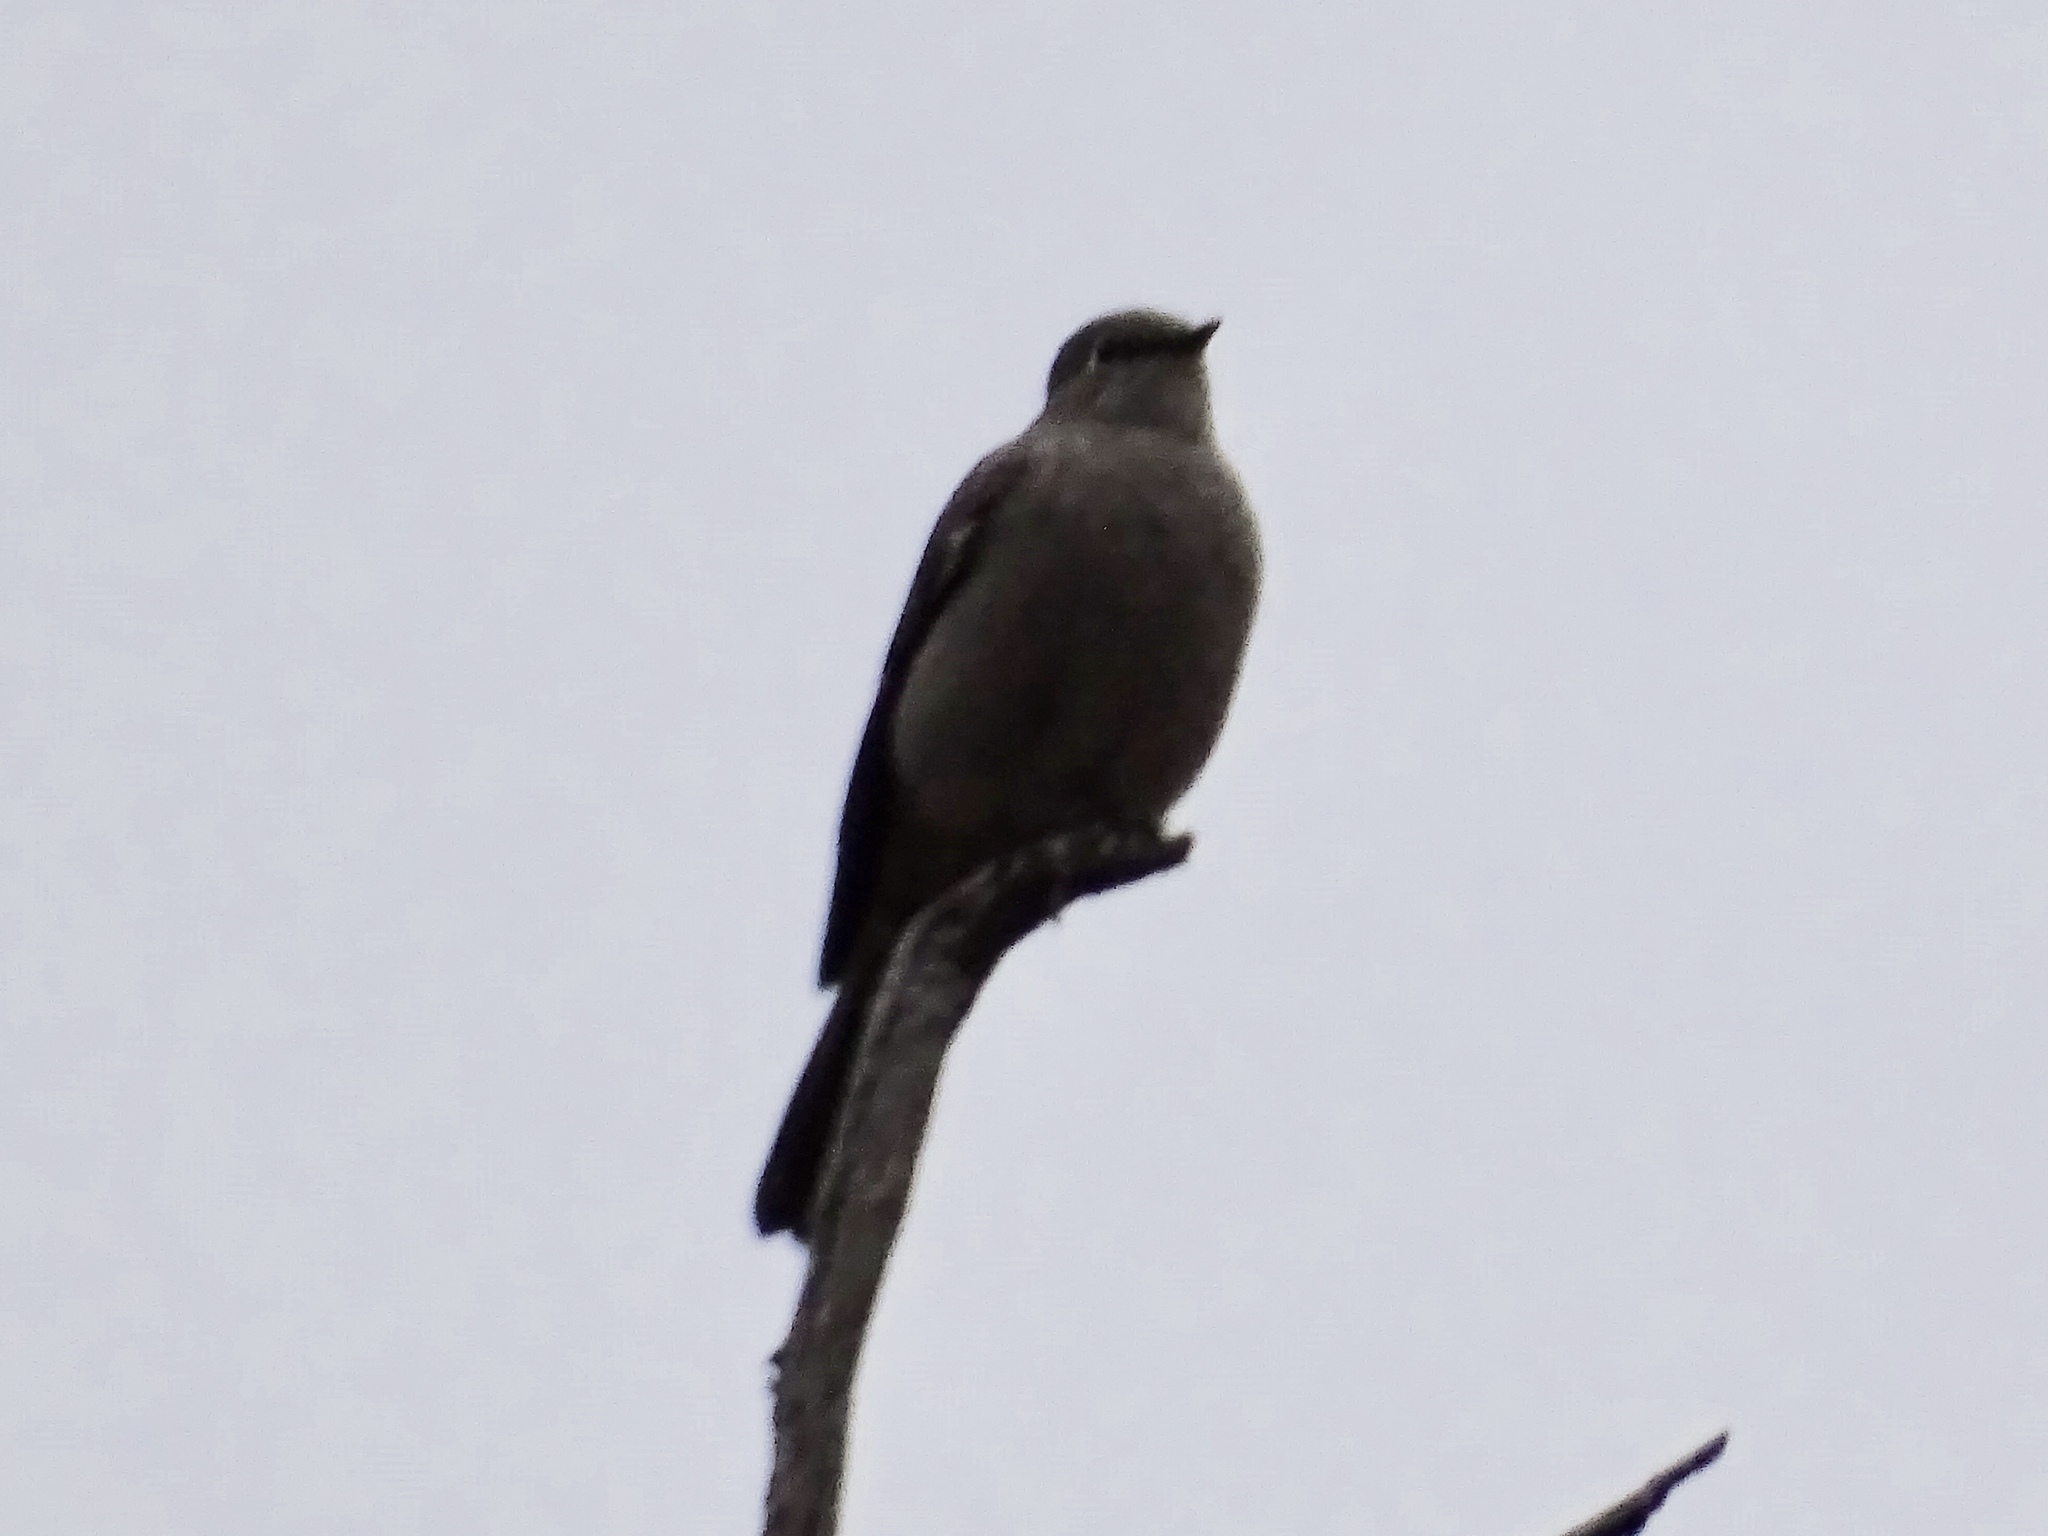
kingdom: Animalia
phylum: Chordata
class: Aves
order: Passeriformes
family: Turdidae
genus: Myadestes
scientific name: Myadestes townsendi
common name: Townsend's solitaire
